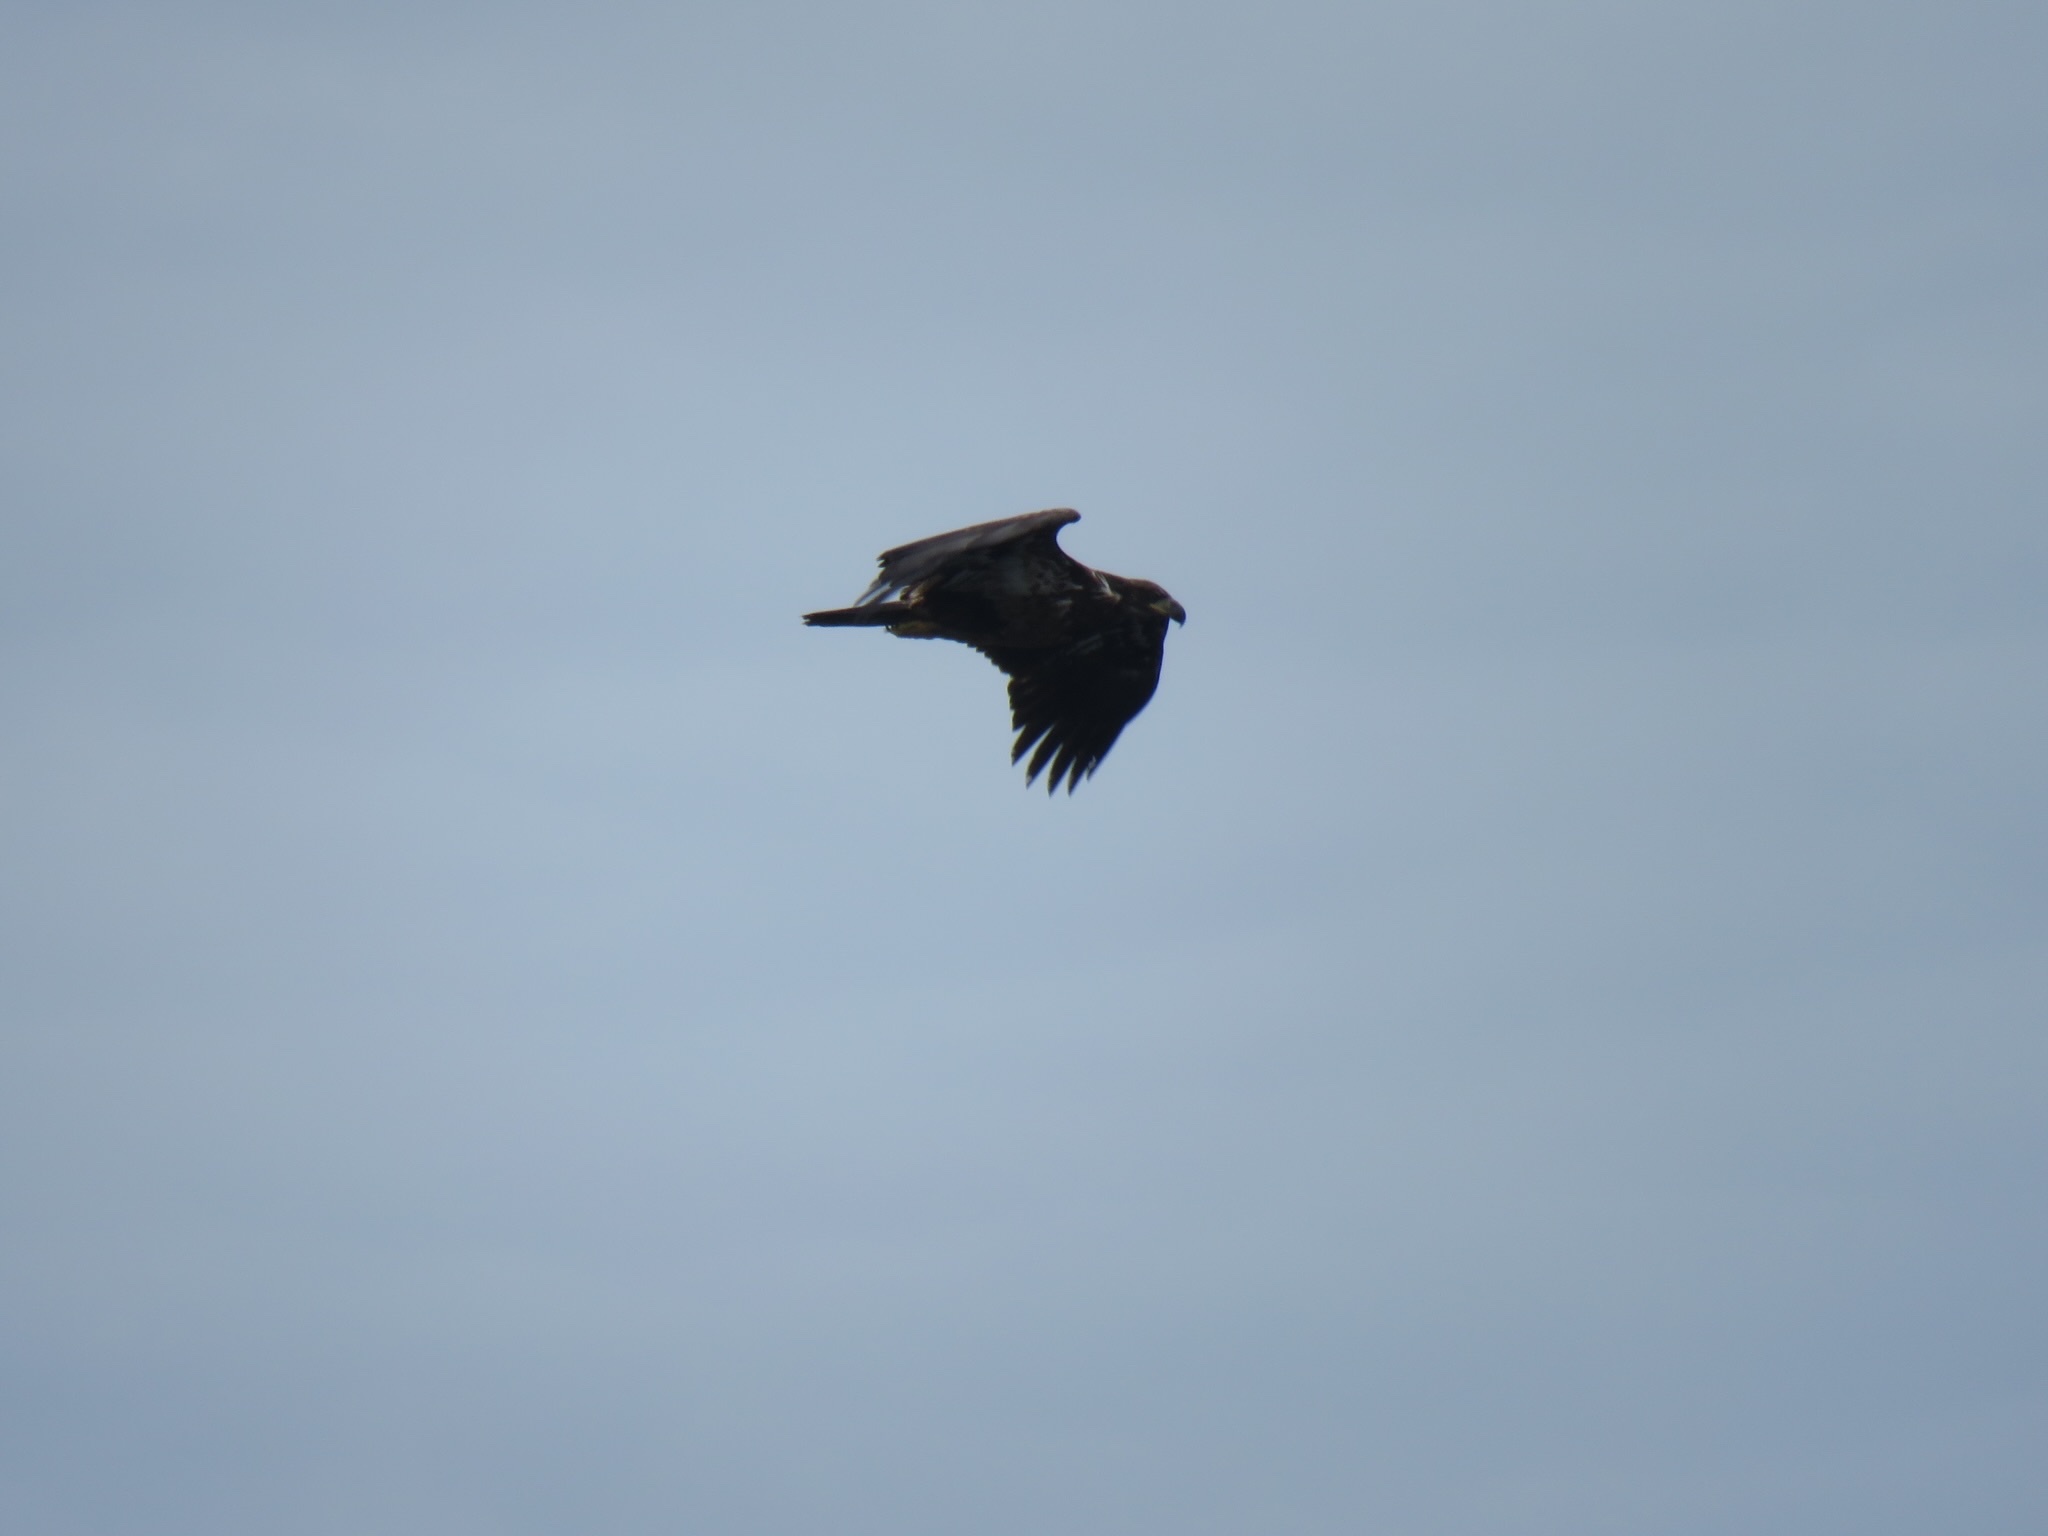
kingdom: Animalia
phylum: Chordata
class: Aves
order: Accipitriformes
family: Accipitridae
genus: Haliaeetus
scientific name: Haliaeetus leucocephalus
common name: Bald eagle
